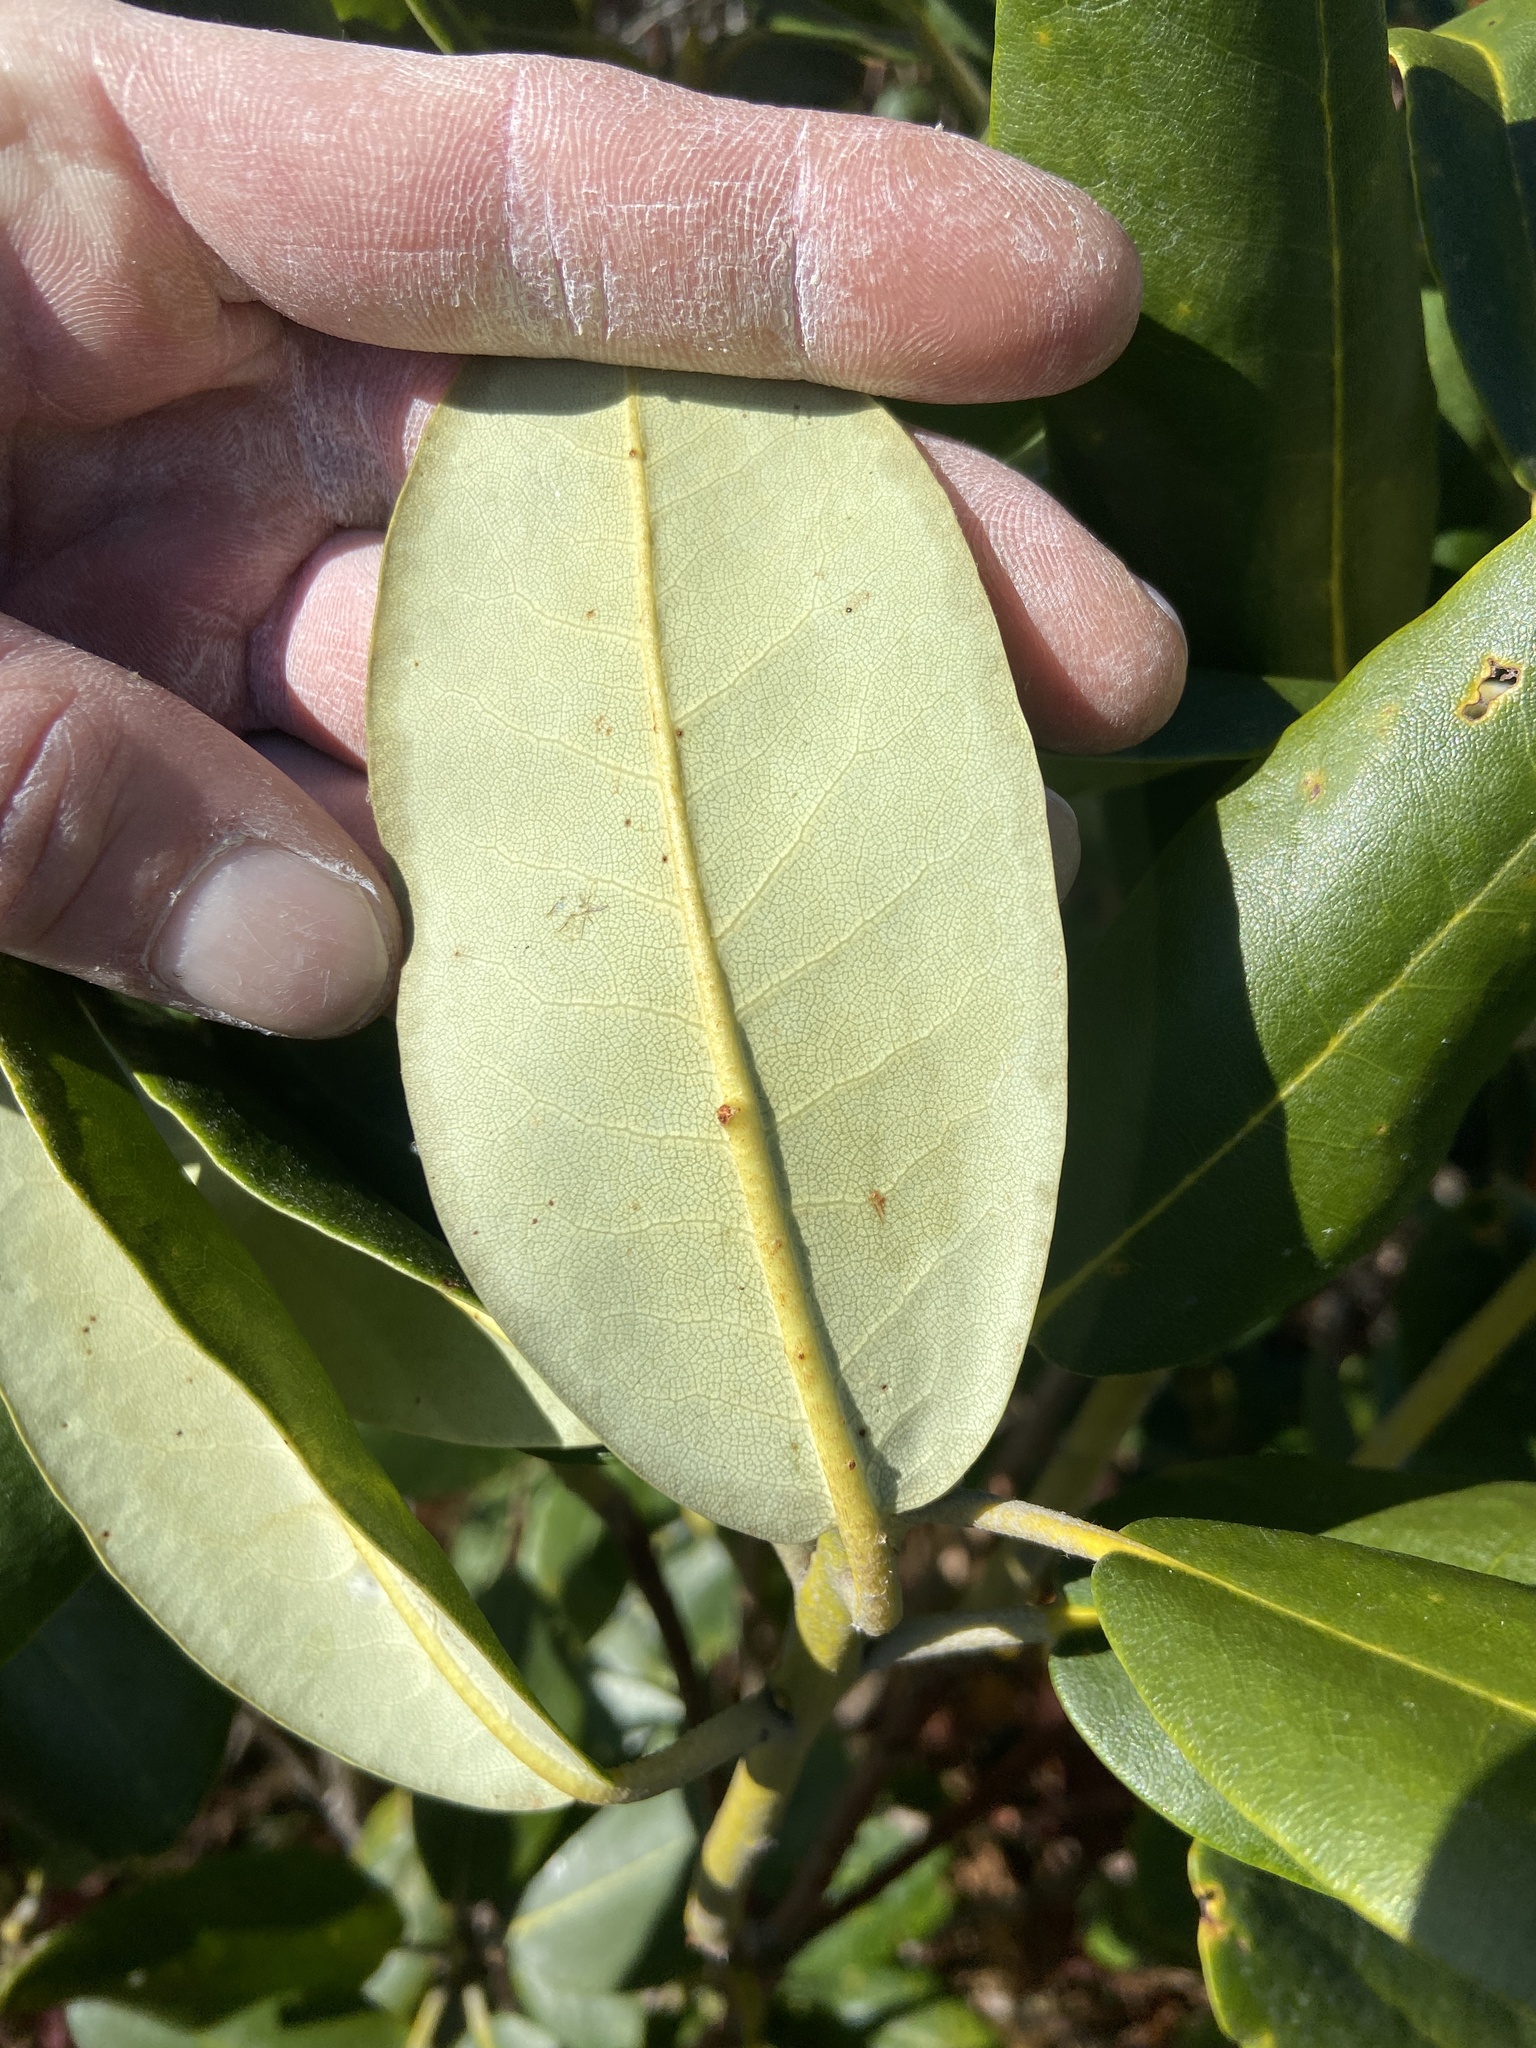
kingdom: Plantae
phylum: Tracheophyta
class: Magnoliopsida
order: Ericales
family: Ericaceae
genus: Rhododendron
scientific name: Rhododendron catawbiense
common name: Catawba rhododendron
